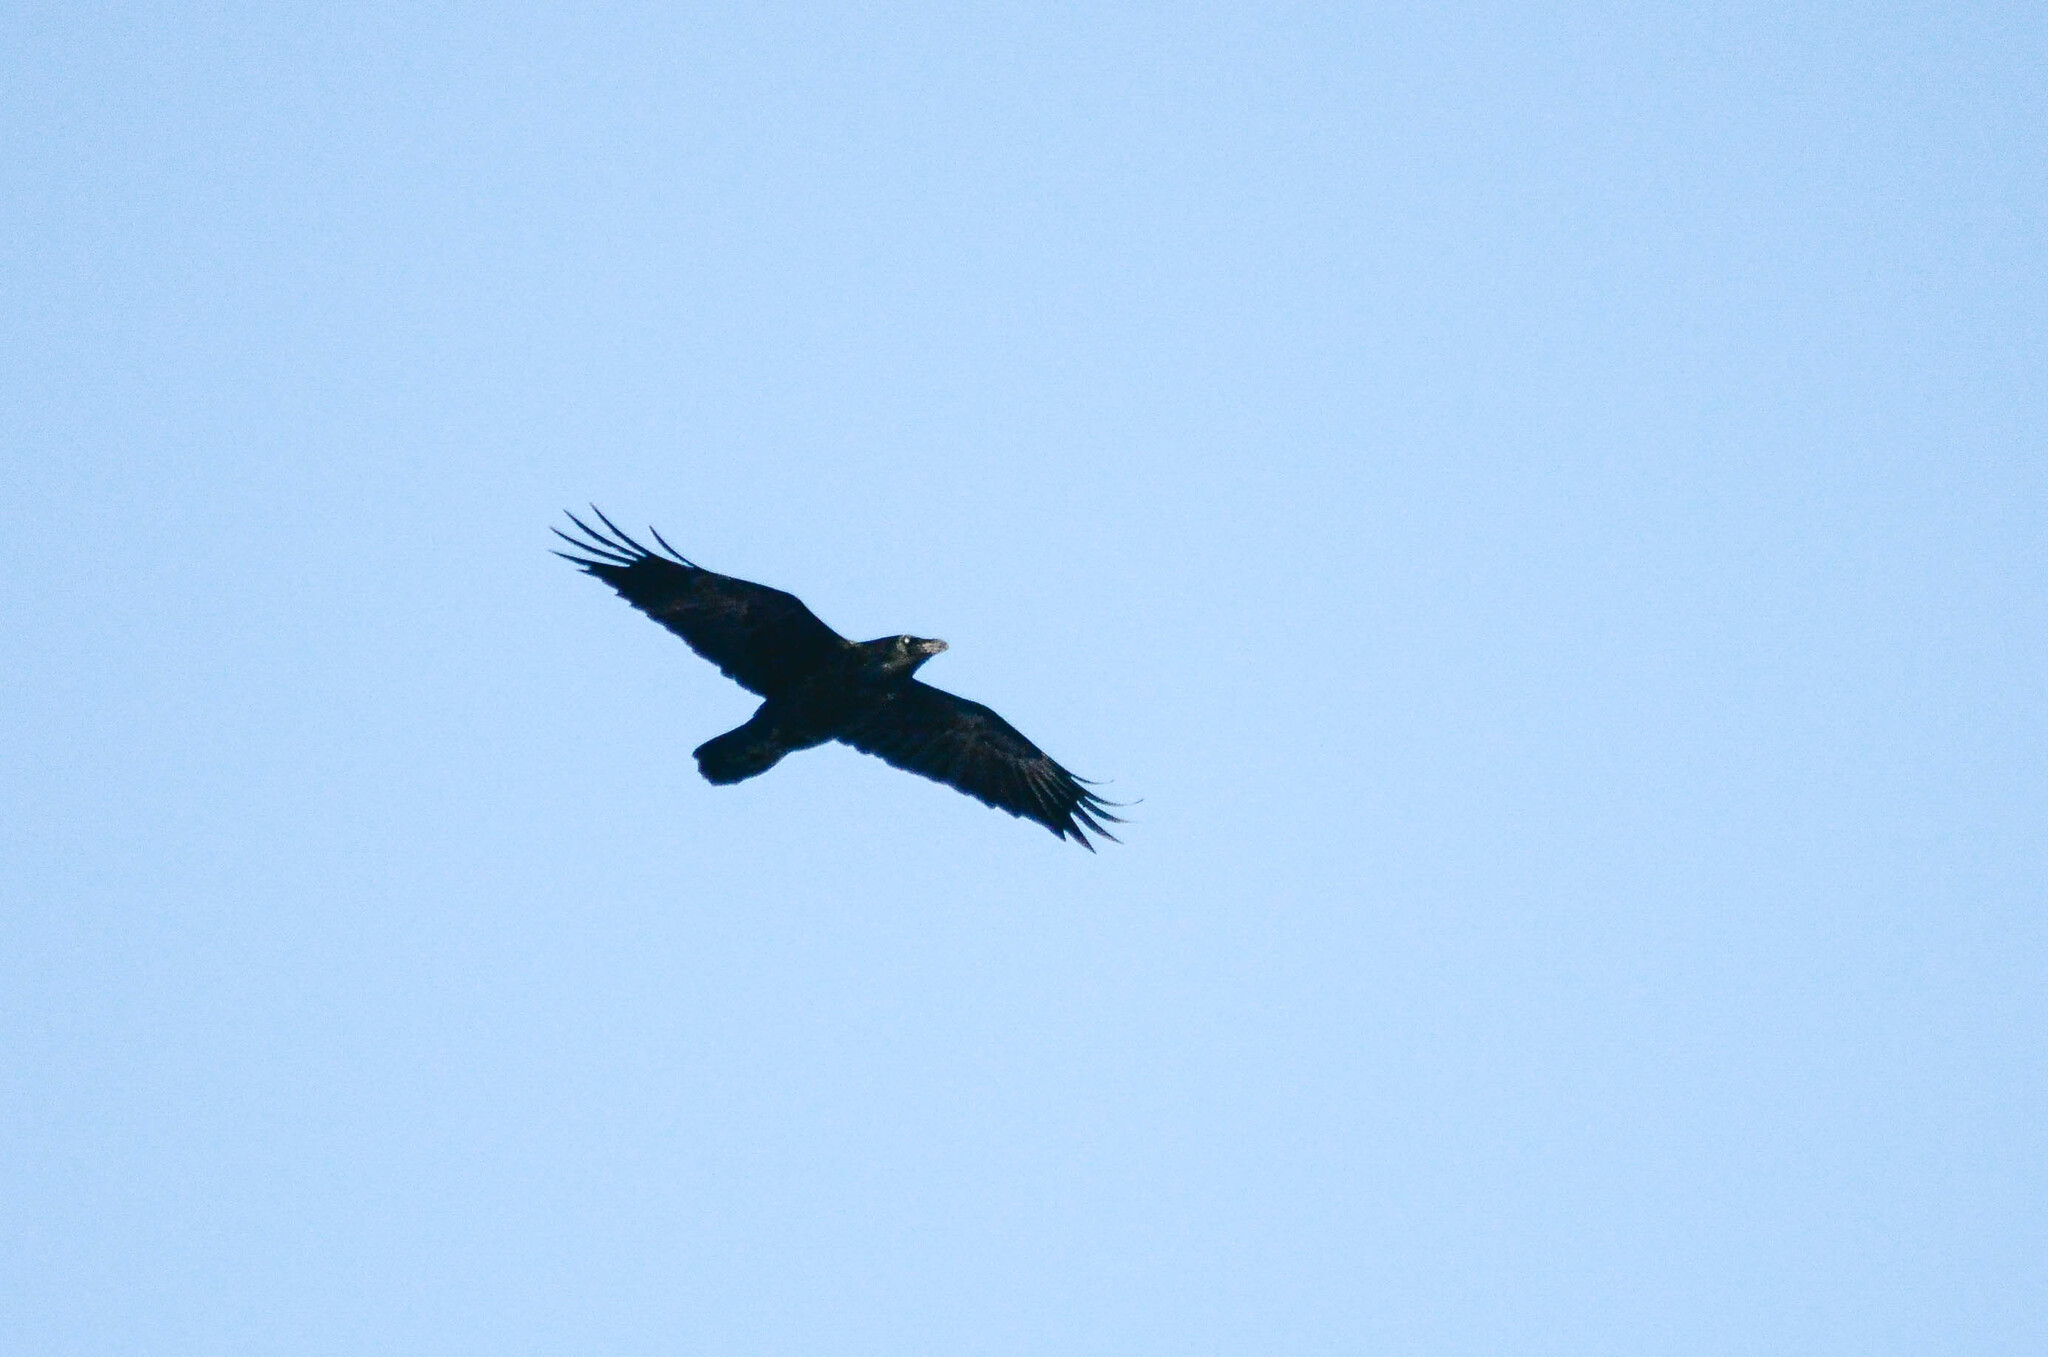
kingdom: Animalia
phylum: Chordata
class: Aves
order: Passeriformes
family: Corvidae
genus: Corvus
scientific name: Corvus corax
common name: Common raven
